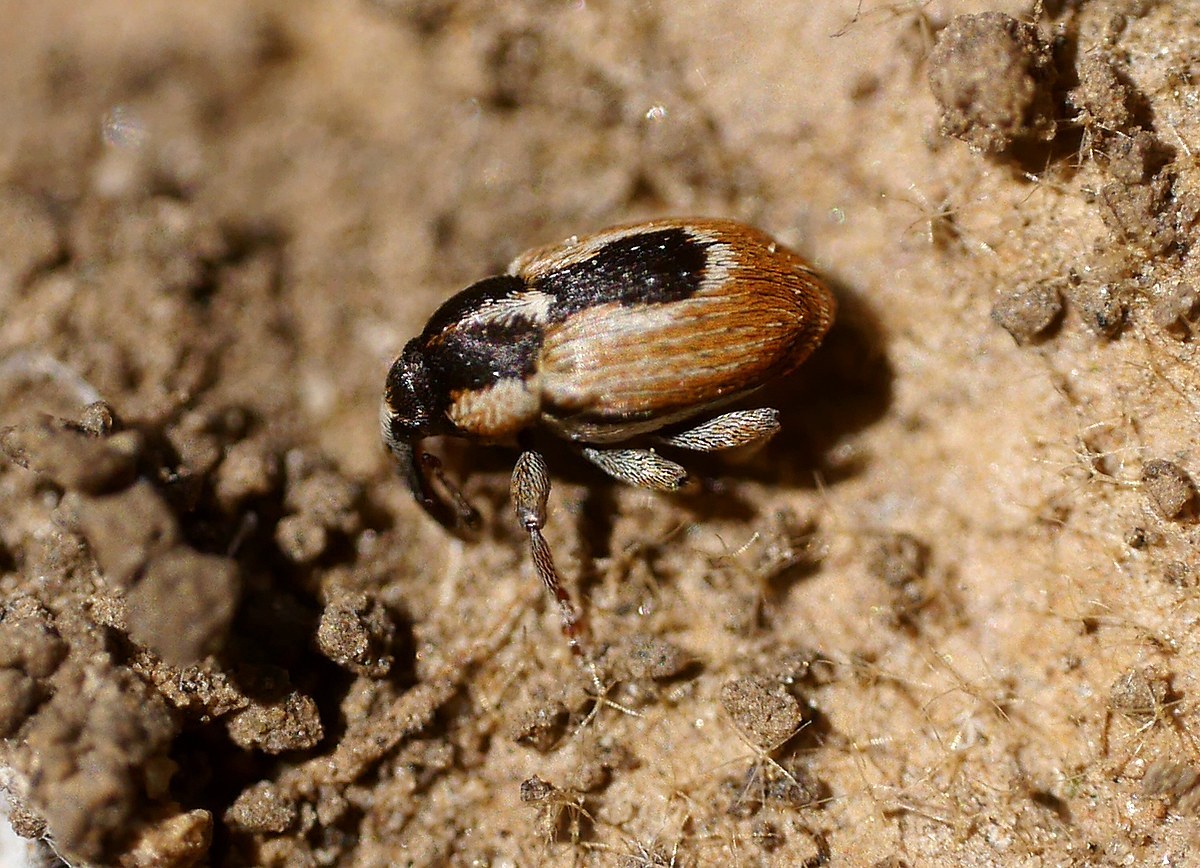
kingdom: Animalia
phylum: Arthropoda
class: Insecta
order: Coleoptera
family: Curculionidae
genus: Sibinia
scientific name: Sibinia phalerata
